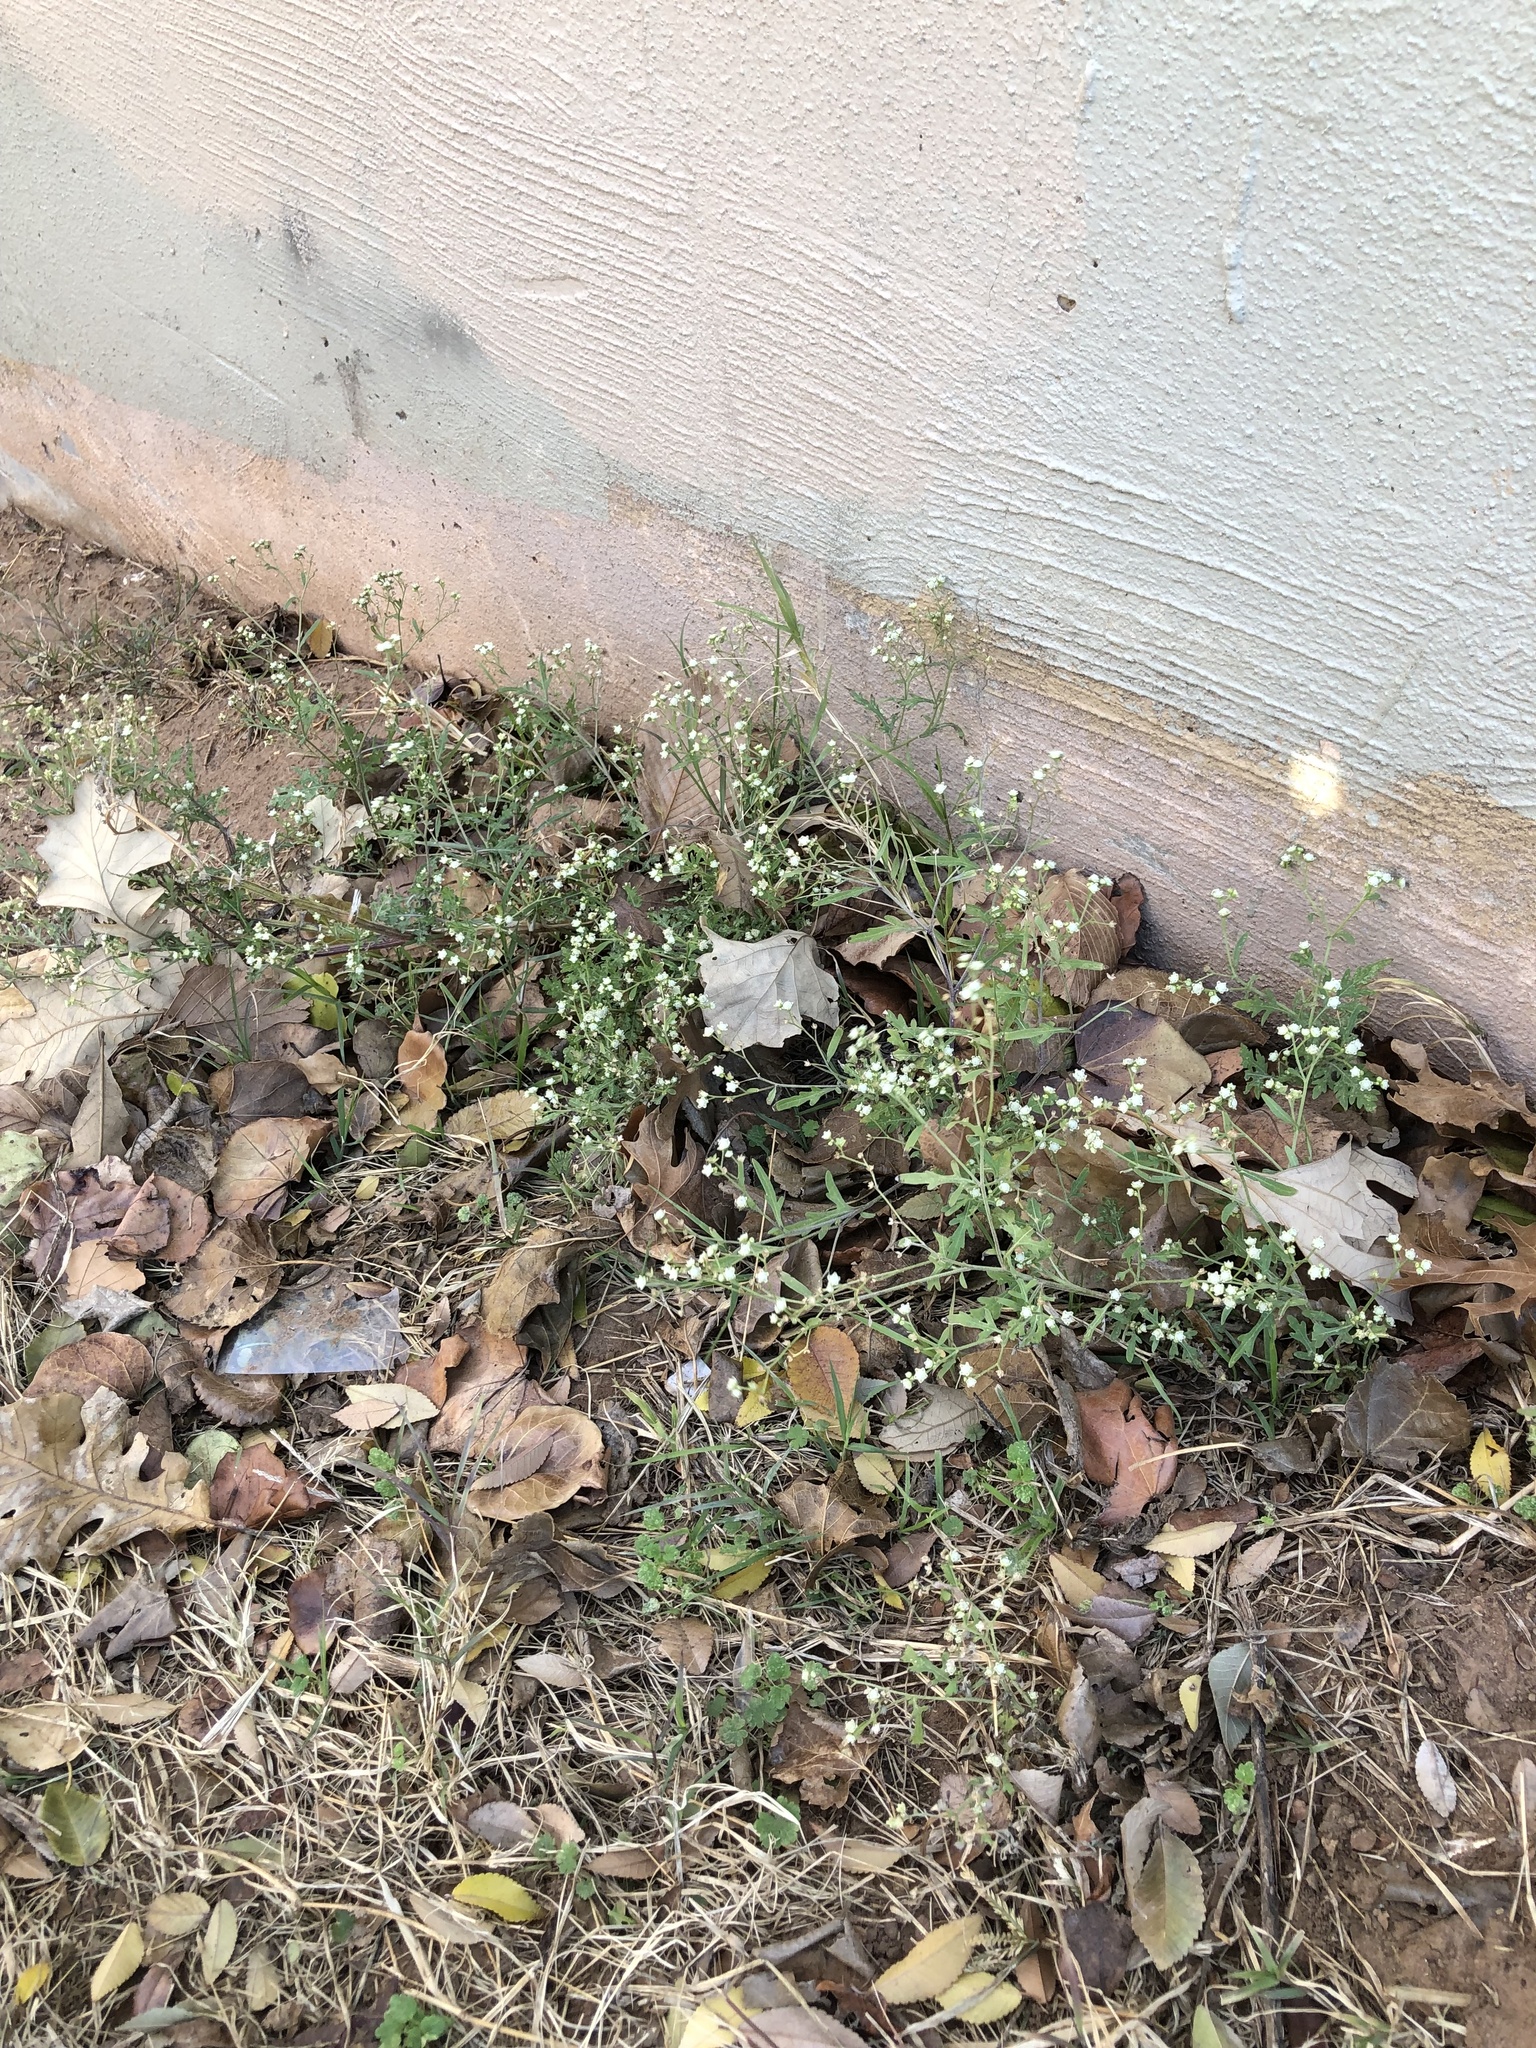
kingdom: Plantae
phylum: Tracheophyta
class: Magnoliopsida
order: Asterales
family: Asteraceae
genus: Parthenium
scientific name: Parthenium hysterophorus
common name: Santa maria feverfew
